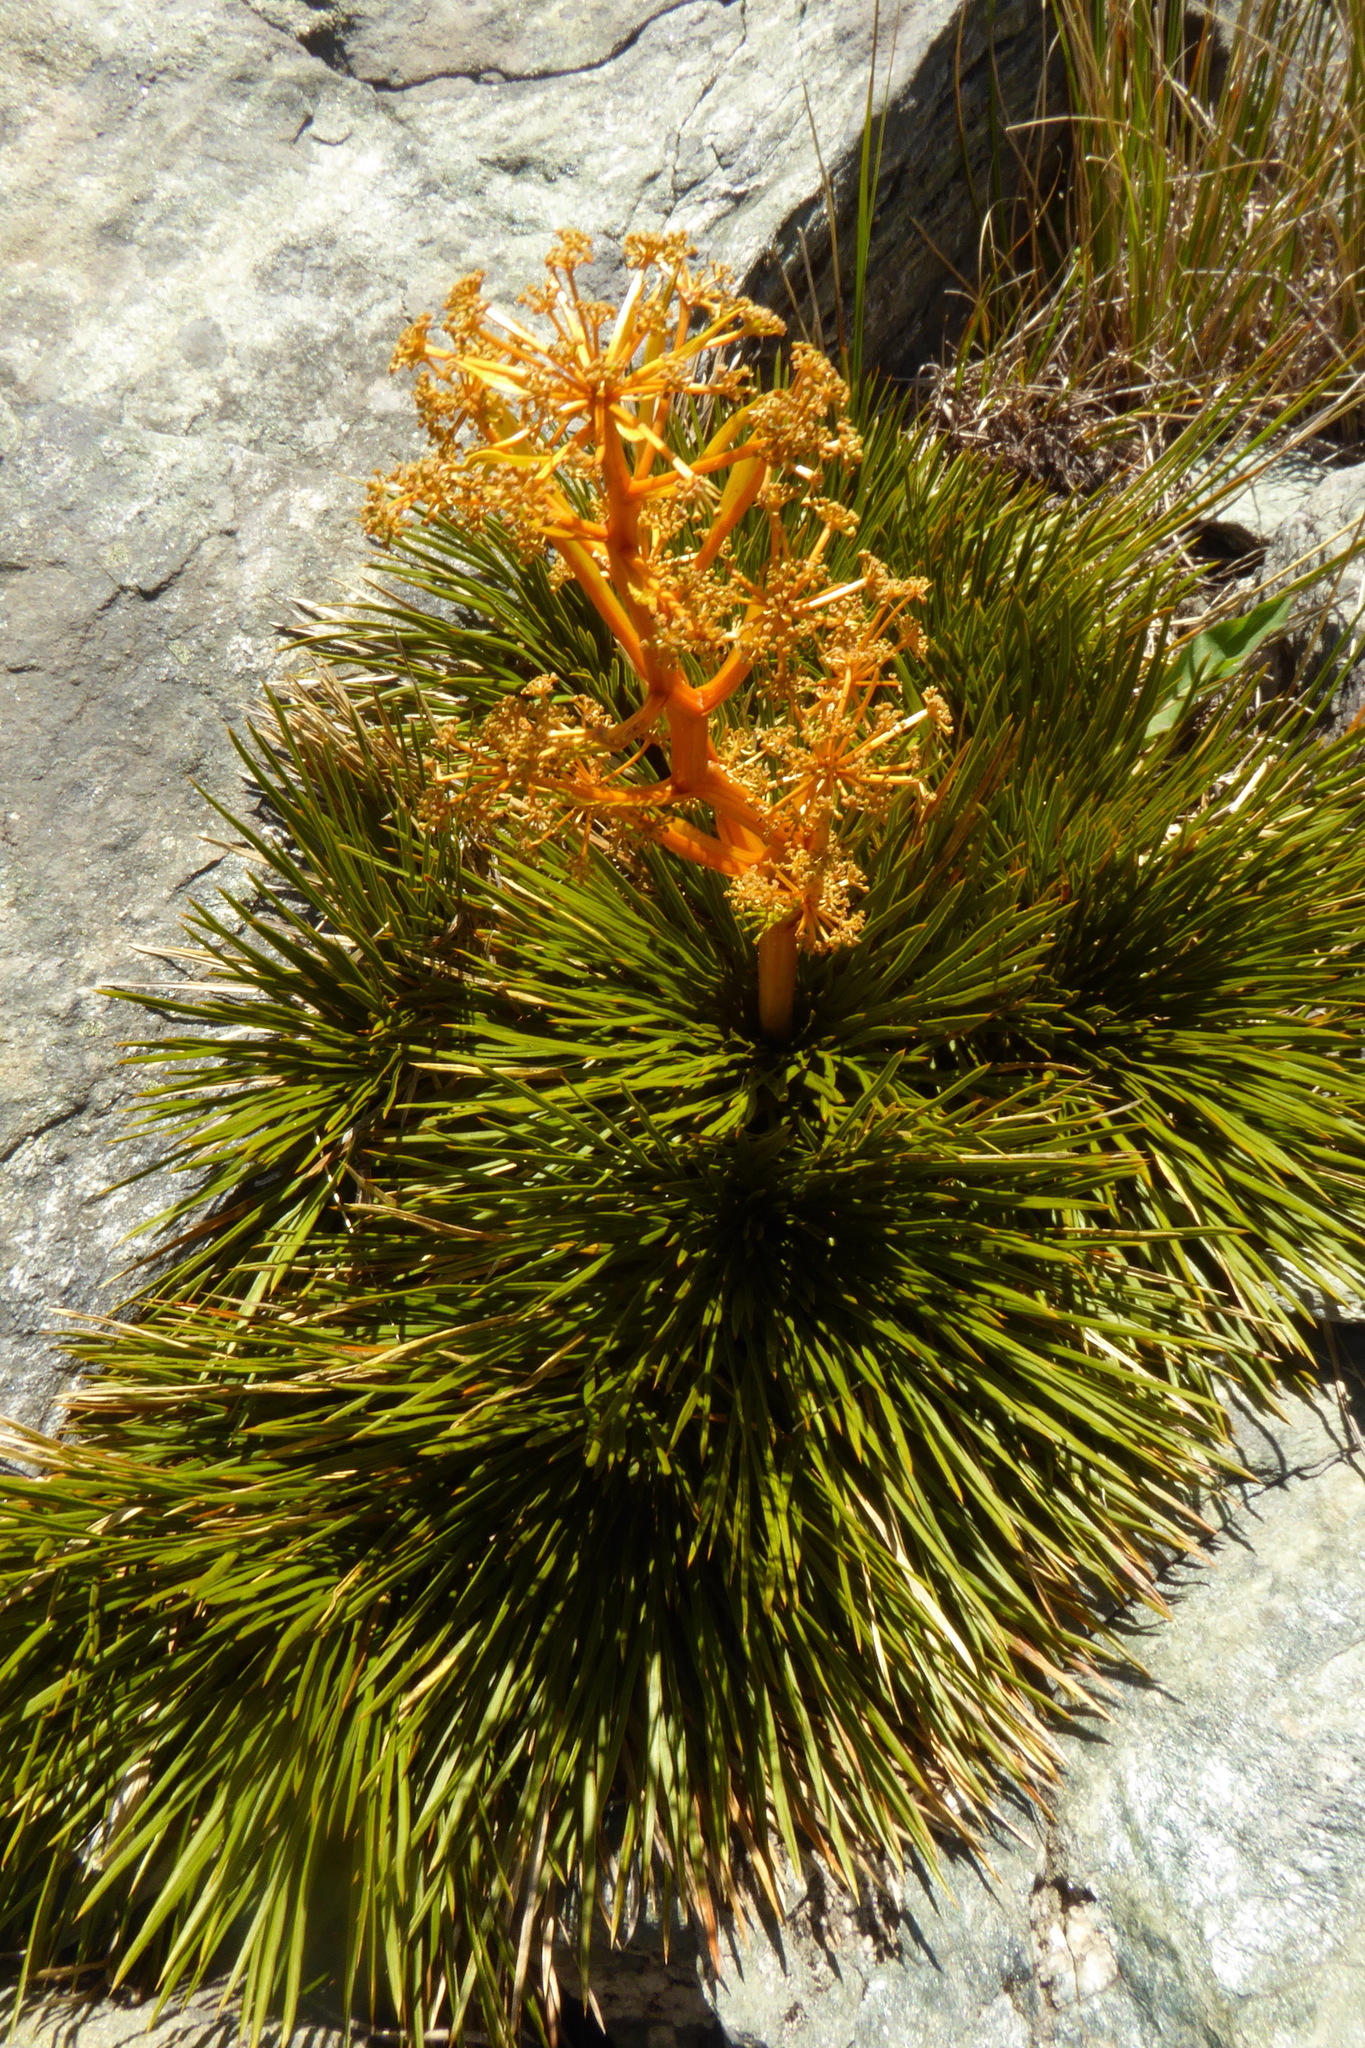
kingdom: Plantae
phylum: Tracheophyta
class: Magnoliopsida
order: Apiales
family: Apiaceae
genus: Aciphylla
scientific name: Aciphylla montana
